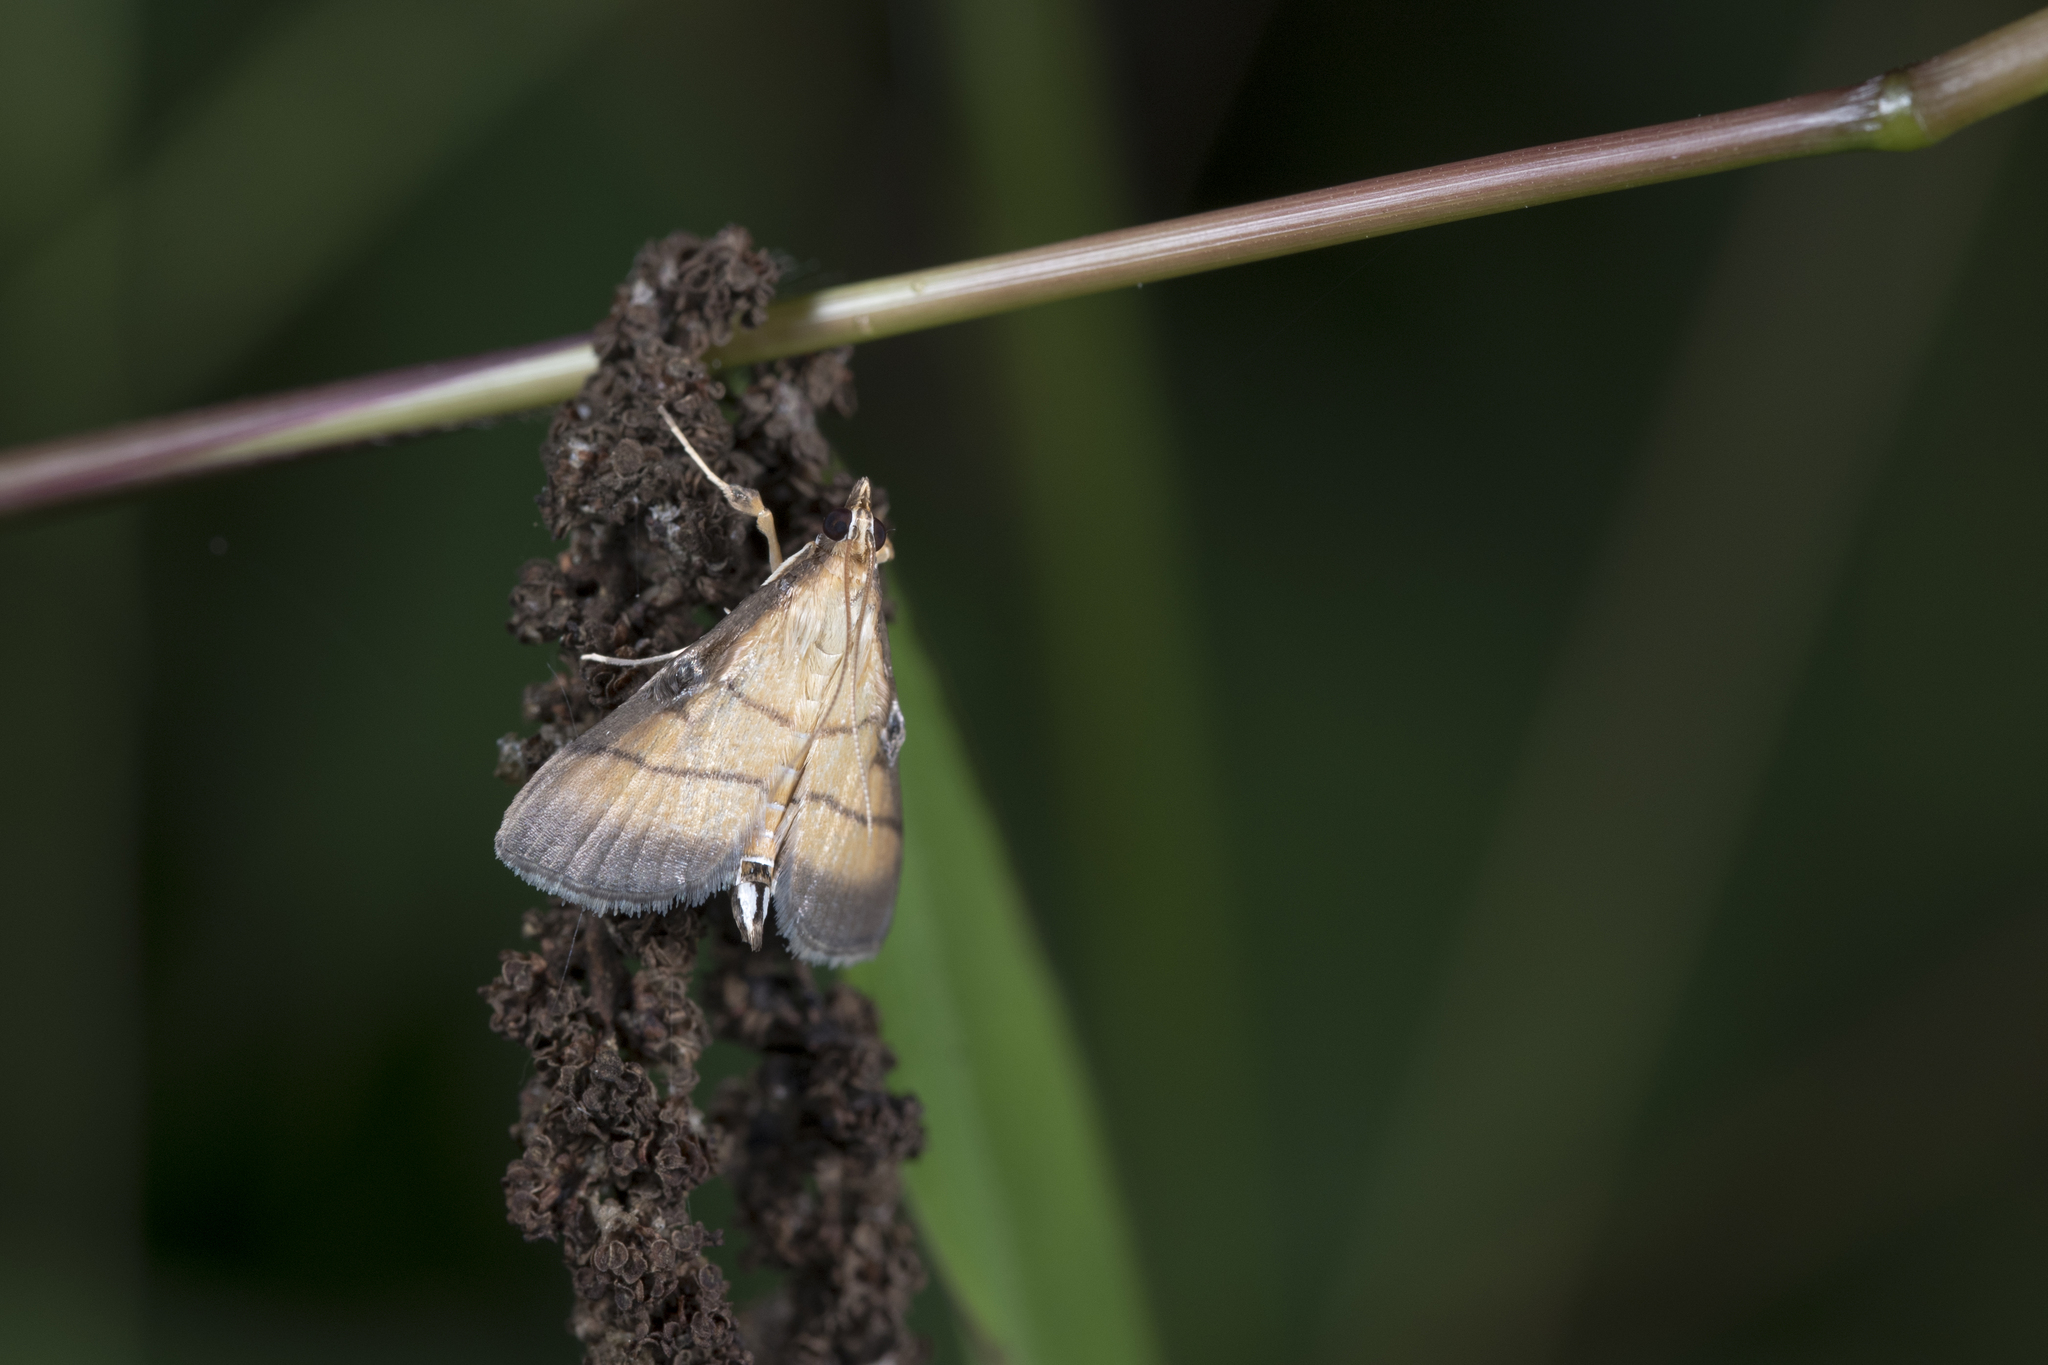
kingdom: Animalia
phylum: Arthropoda
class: Insecta
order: Lepidoptera
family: Crambidae
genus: Cnaphalocrocis
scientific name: Cnaphalocrocis medinalis
